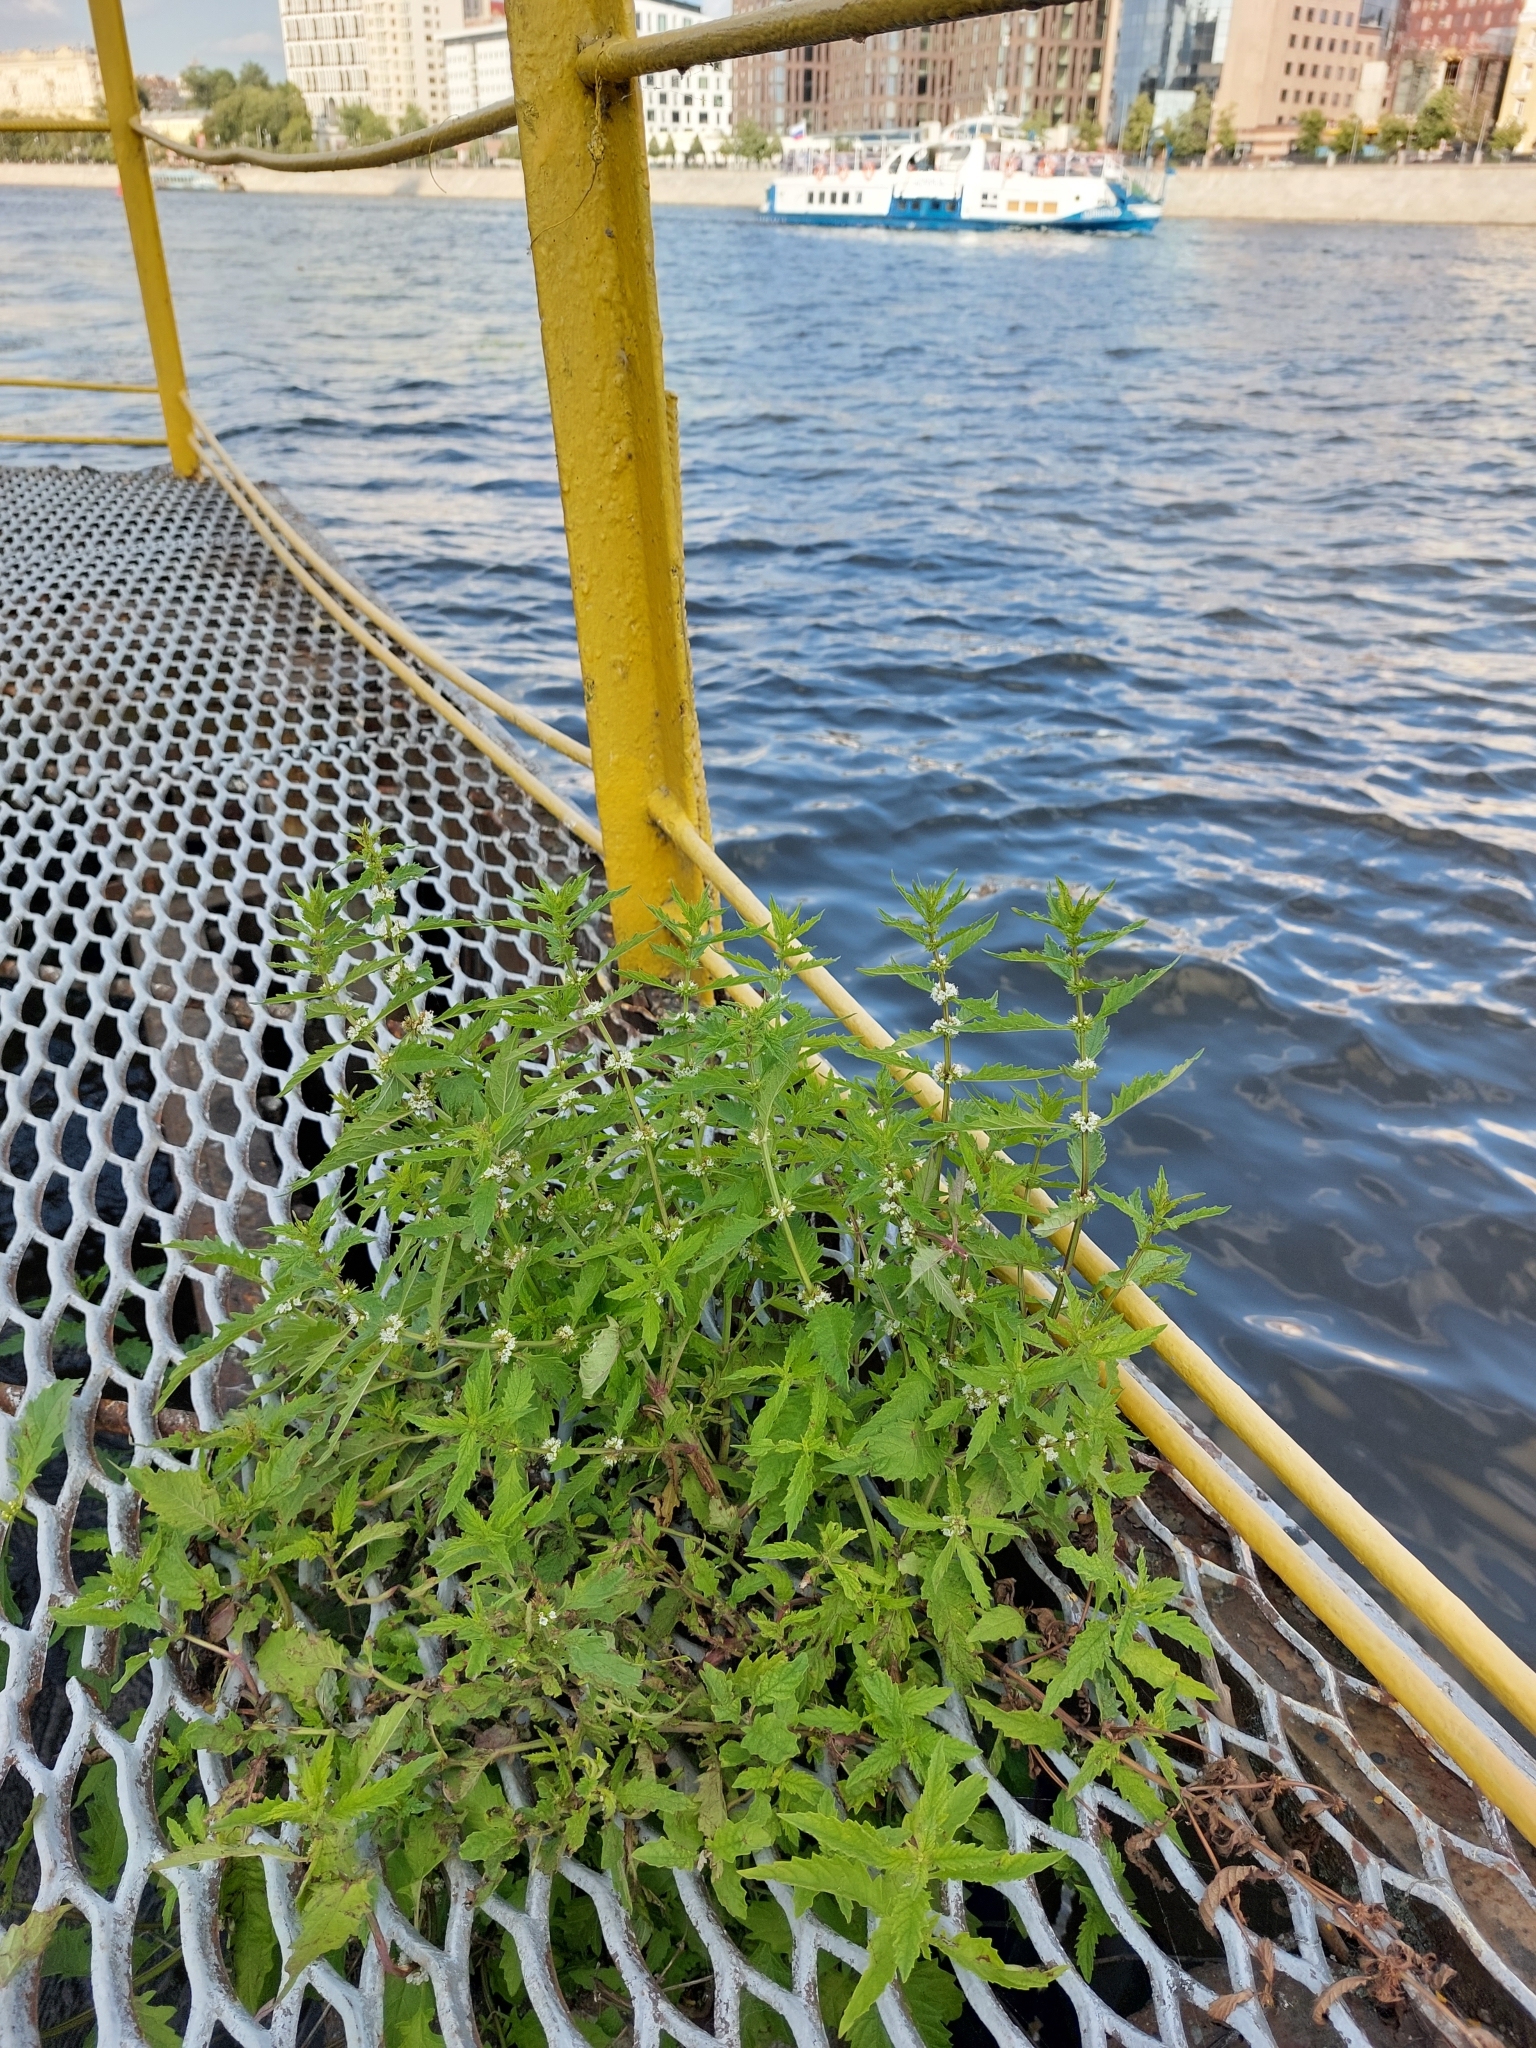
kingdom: Plantae
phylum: Tracheophyta
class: Magnoliopsida
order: Lamiales
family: Lamiaceae
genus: Lycopus
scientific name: Lycopus europaeus
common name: European bugleweed
